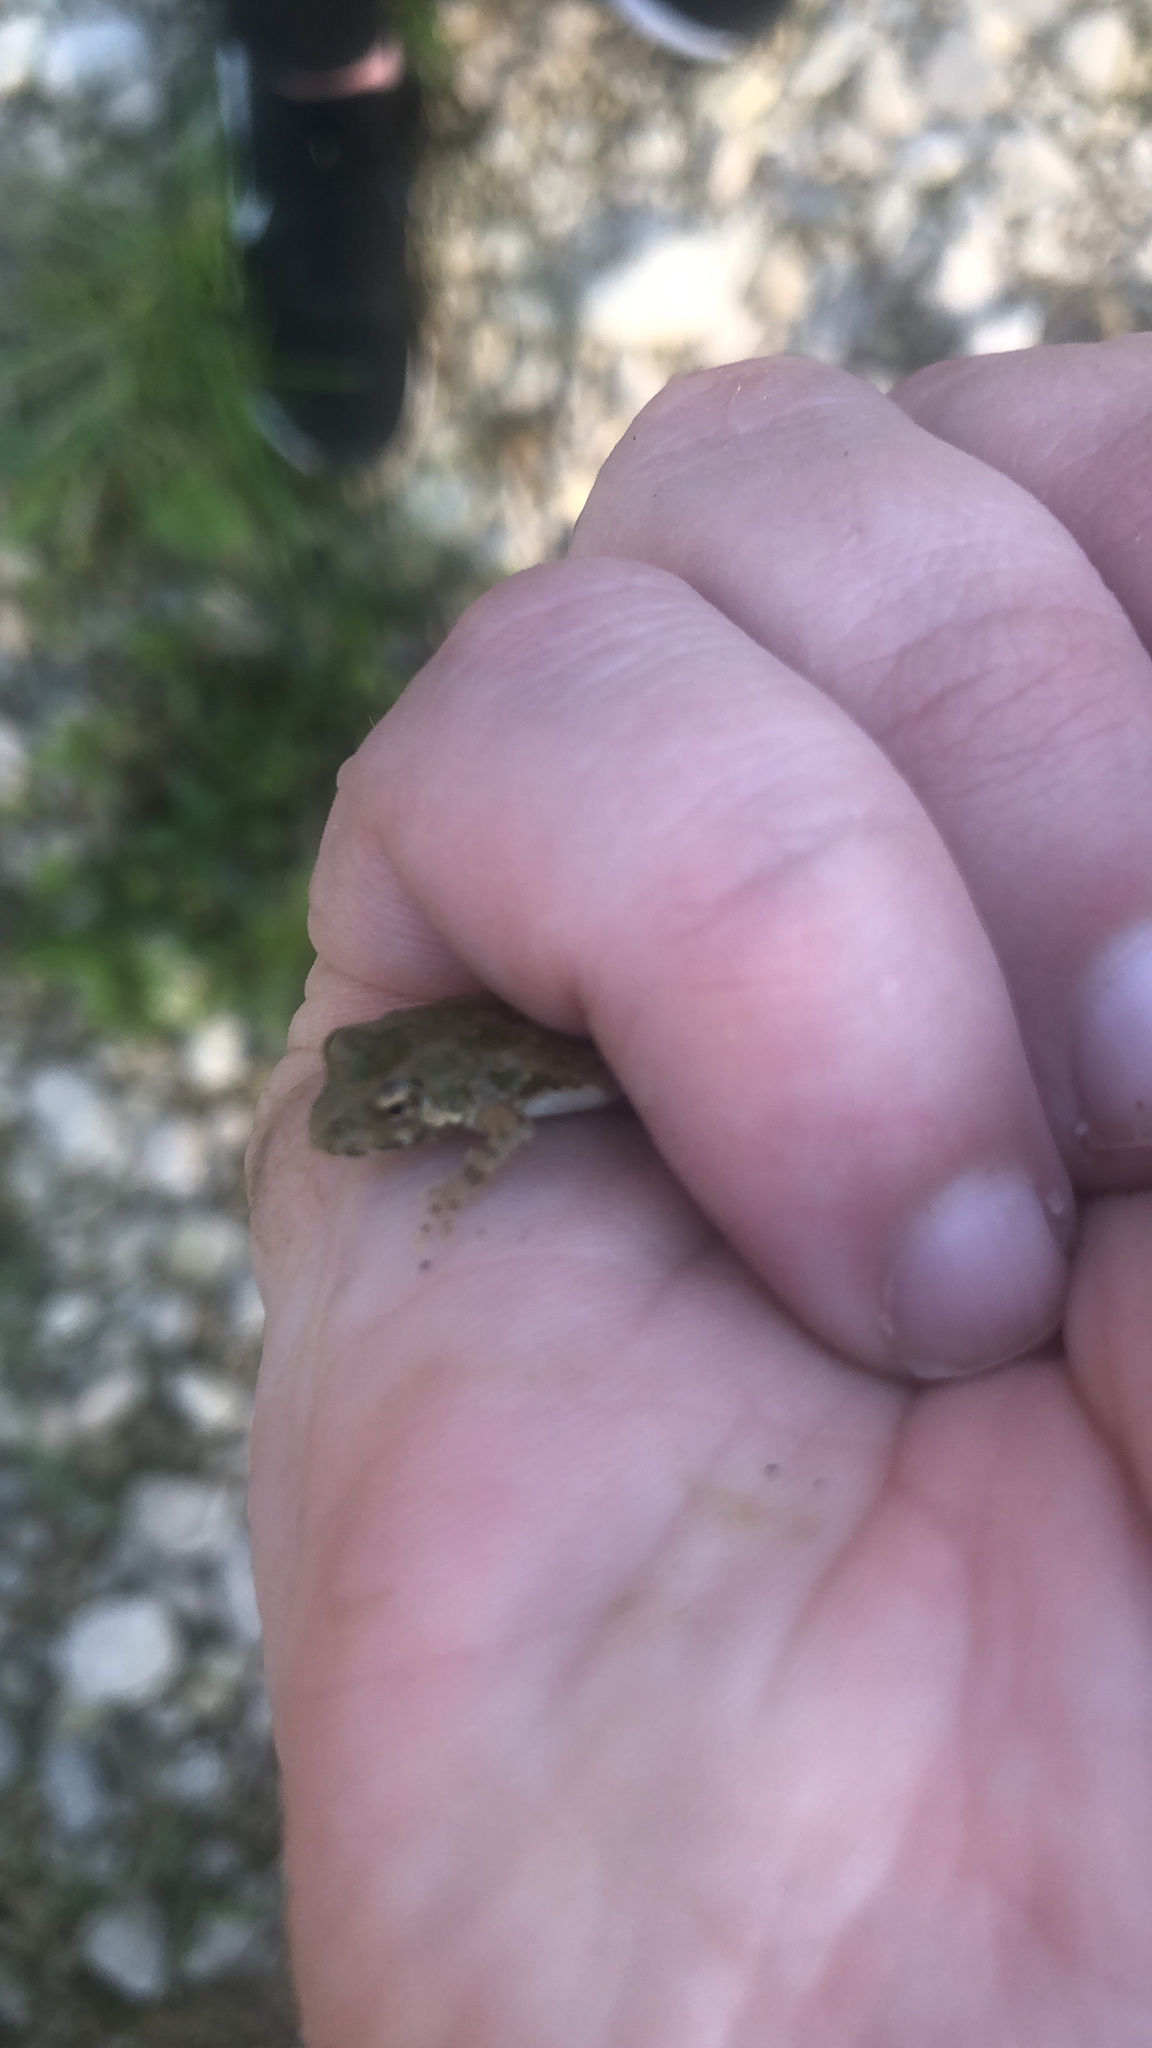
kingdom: Animalia
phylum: Chordata
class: Amphibia
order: Anura
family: Hylidae
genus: Acris
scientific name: Acris blanchardi
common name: Blanchard's cricket frog
